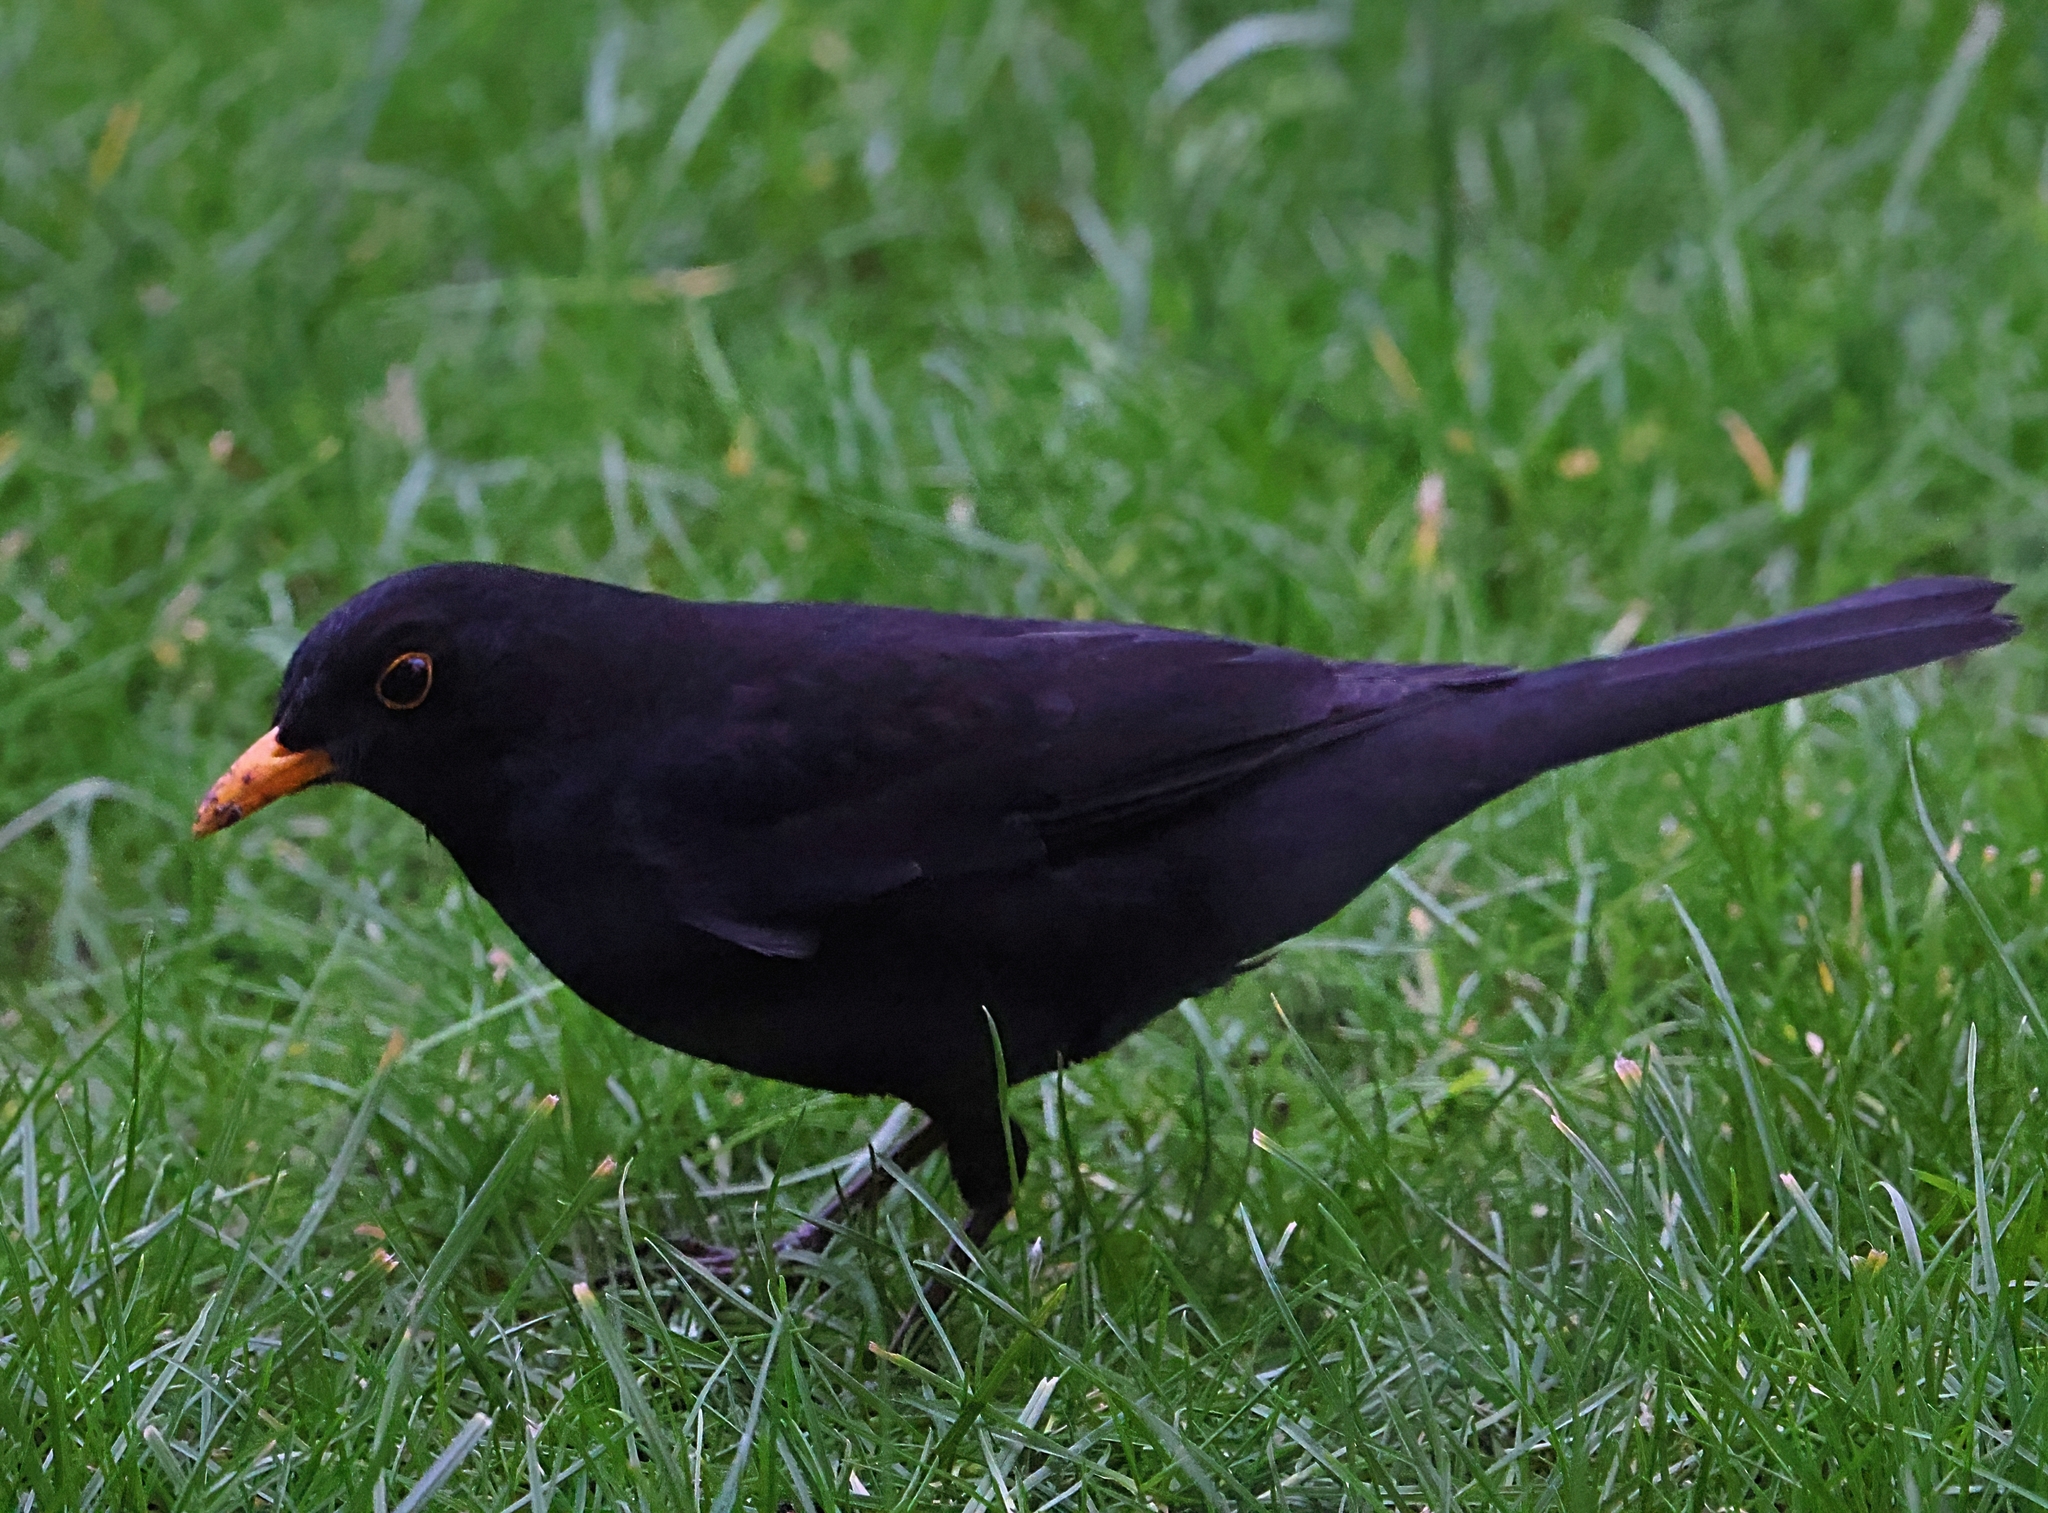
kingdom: Animalia
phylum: Chordata
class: Aves
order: Passeriformes
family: Turdidae
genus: Turdus
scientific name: Turdus merula
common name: Common blackbird
